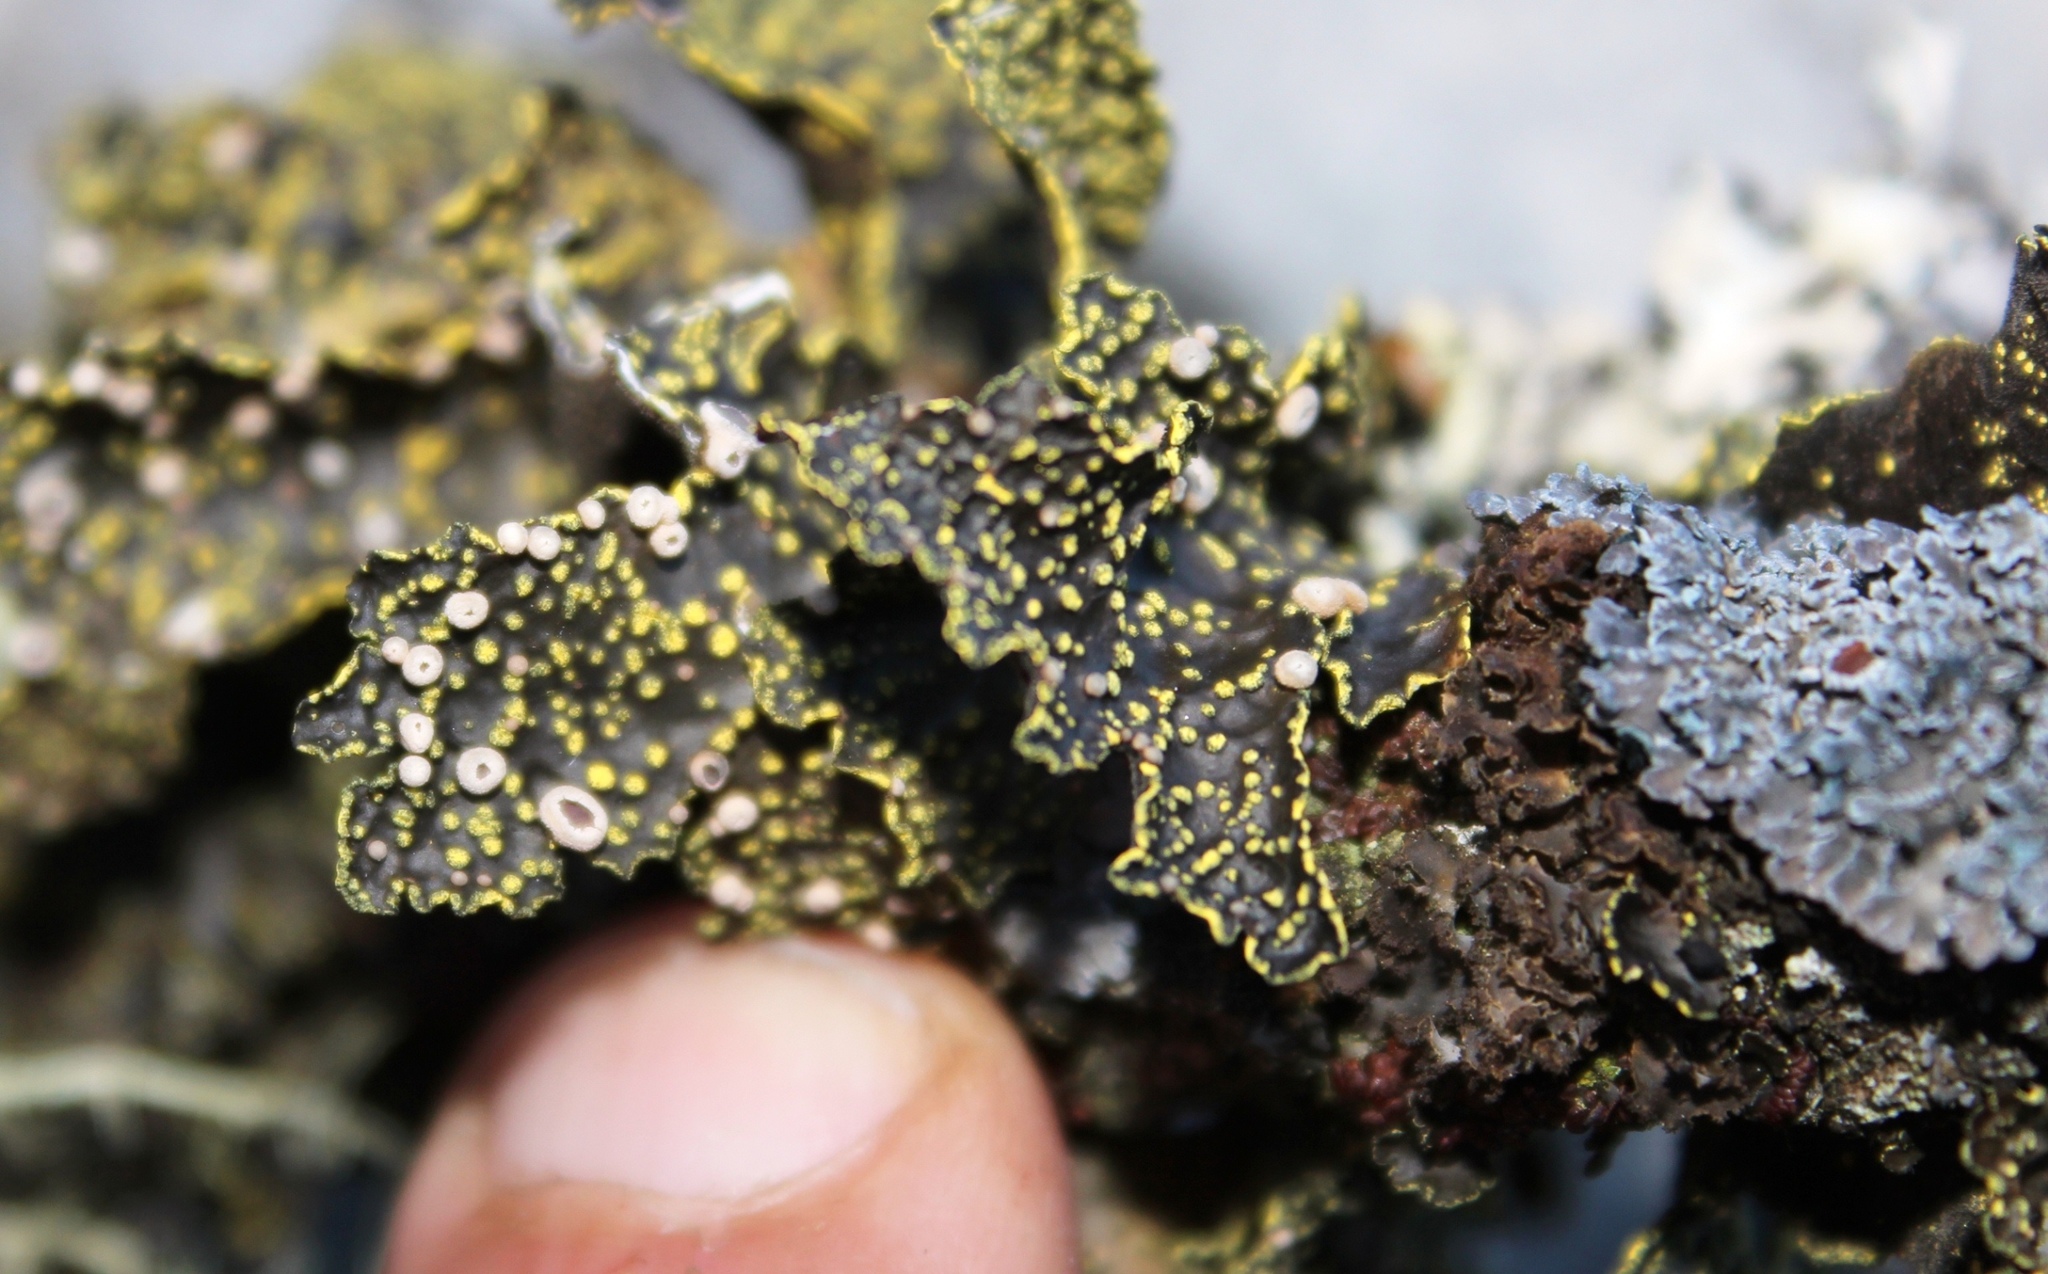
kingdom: Fungi
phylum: Ascomycota
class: Lecanoromycetes
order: Peltigerales
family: Lobariaceae
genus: Pseudocyphellaria
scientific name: Pseudocyphellaria crocata
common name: Golden specklebelly
